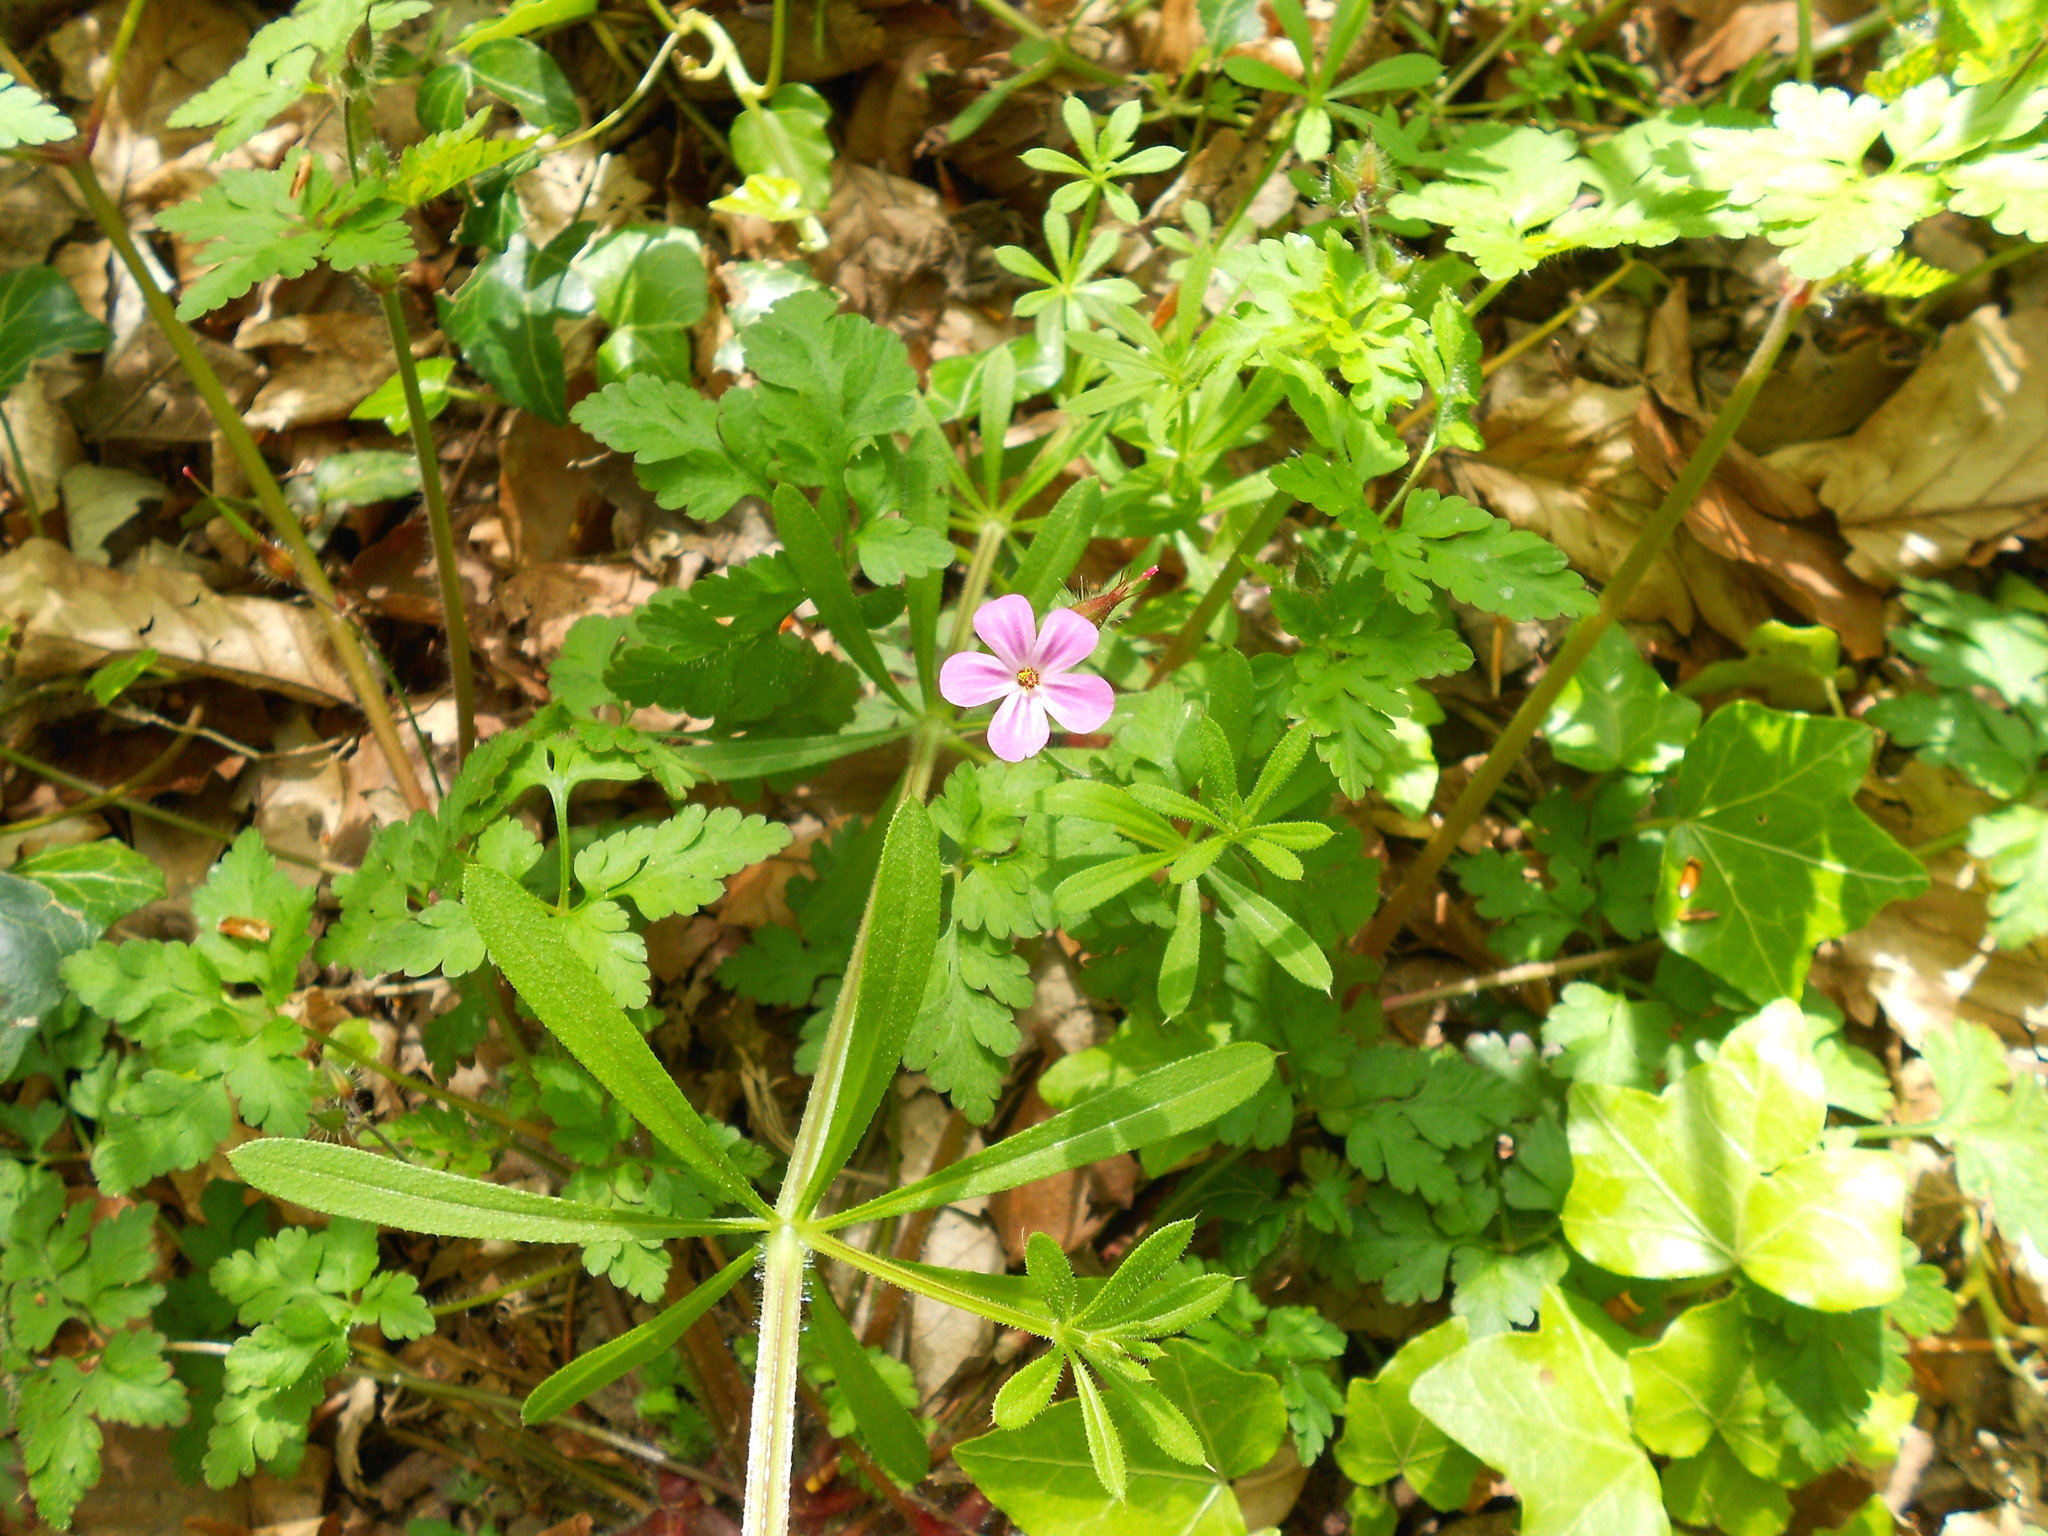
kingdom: Plantae
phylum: Tracheophyta
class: Magnoliopsida
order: Geraniales
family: Geraniaceae
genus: Geranium
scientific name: Geranium robertianum
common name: Herb-robert
